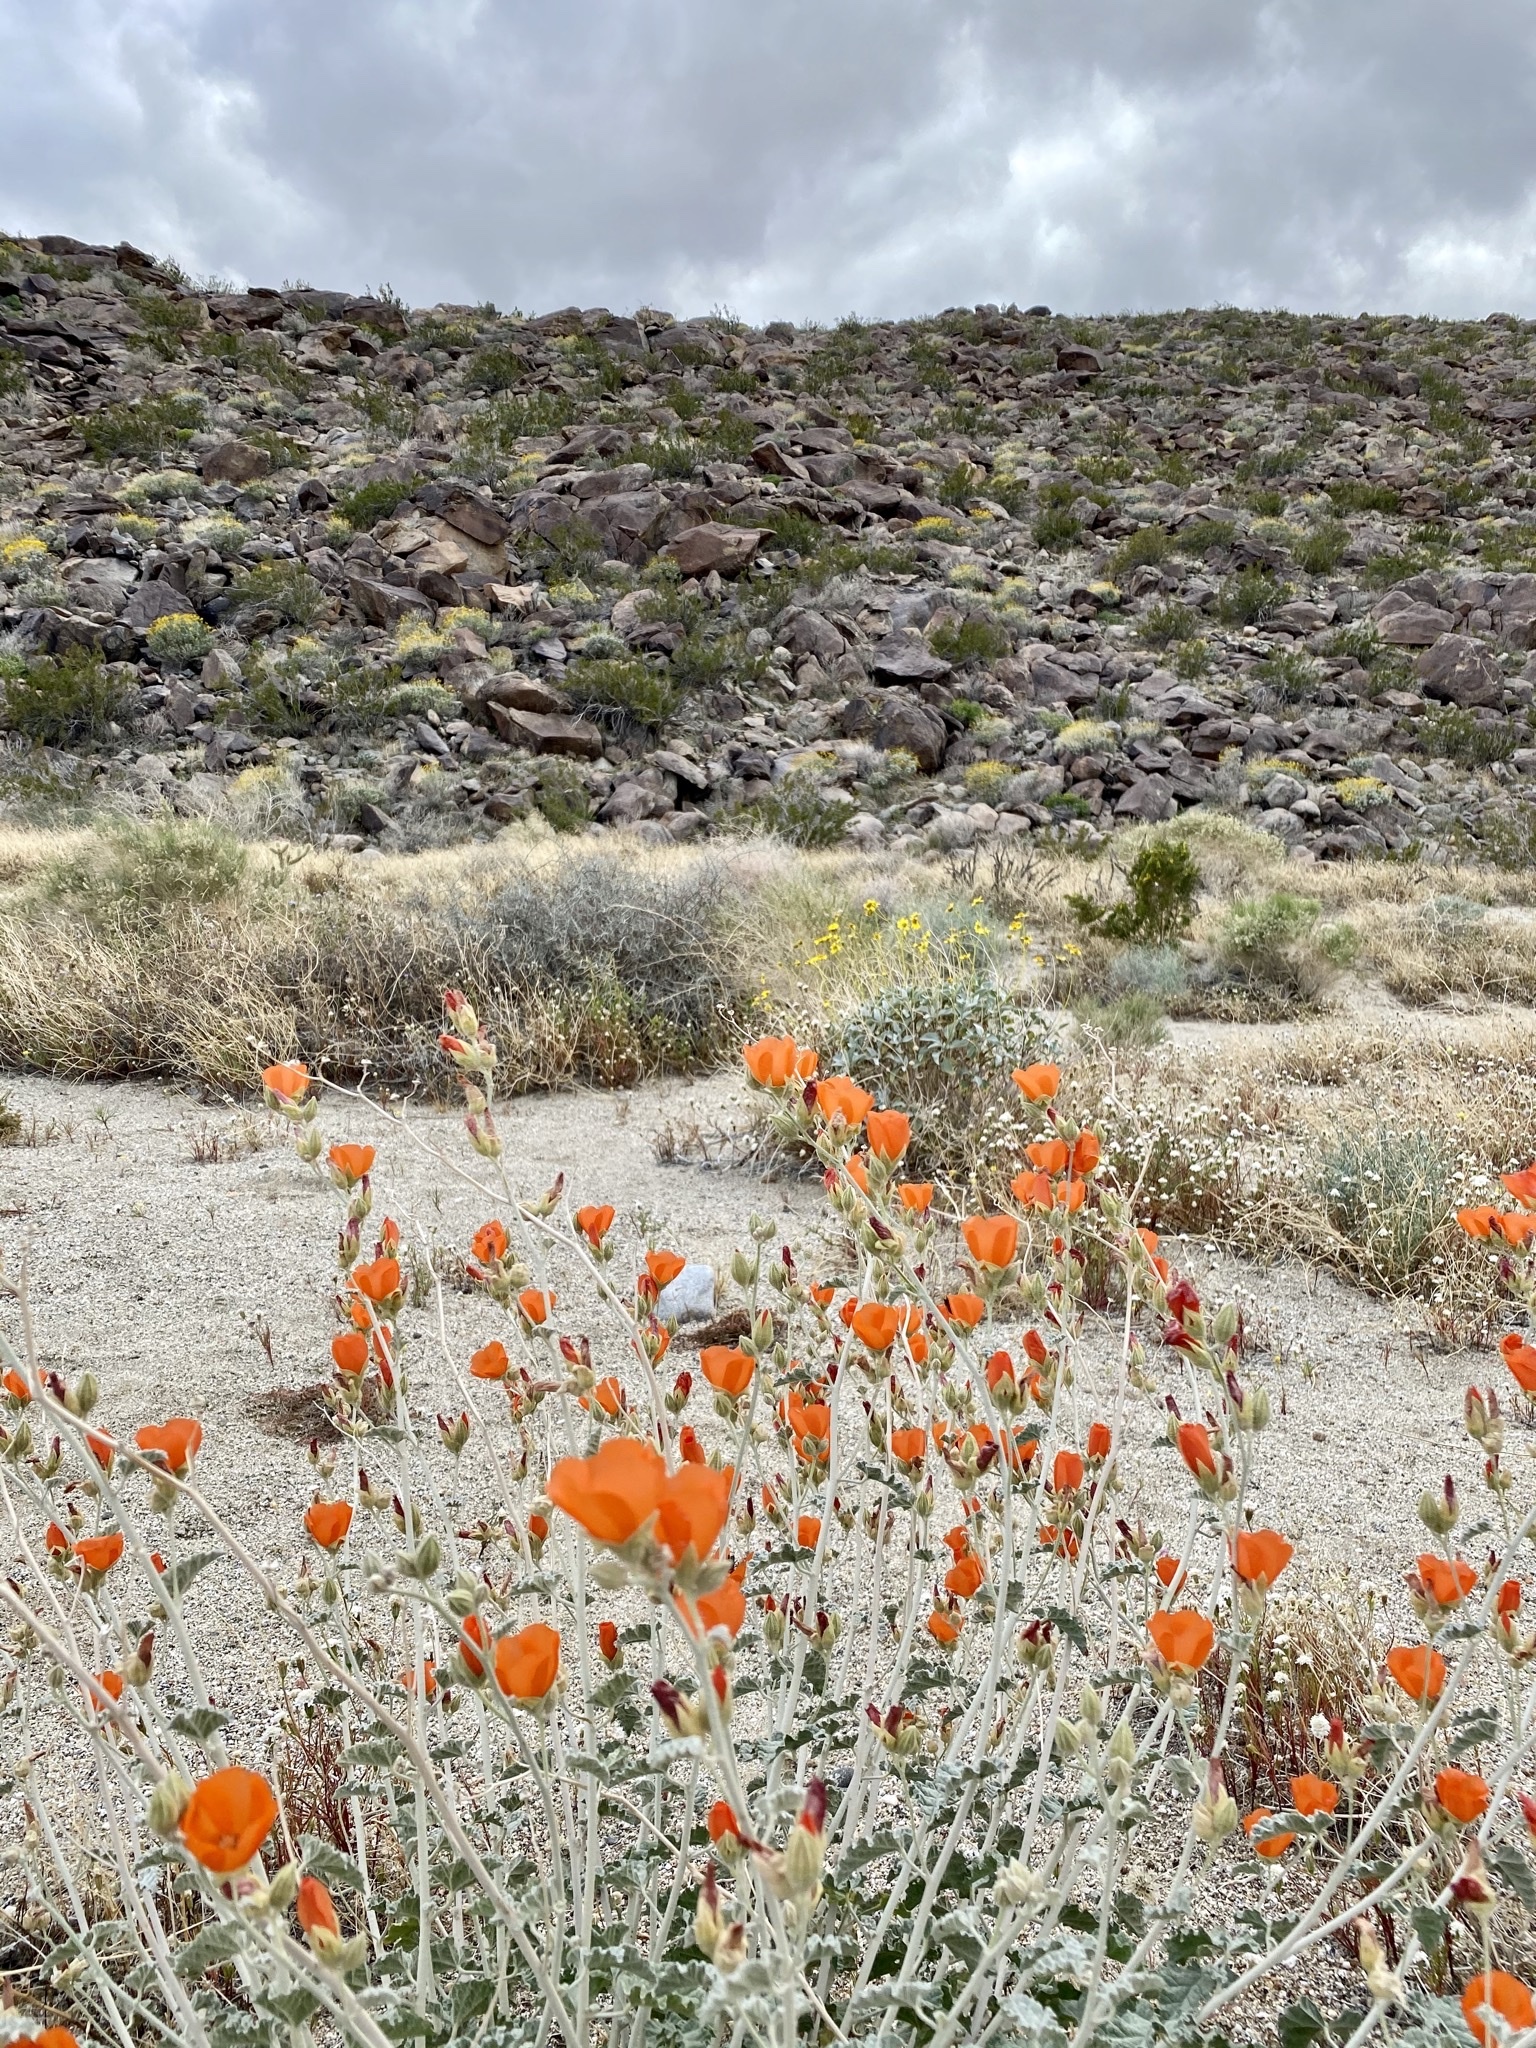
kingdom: Plantae
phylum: Tracheophyta
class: Magnoliopsida
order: Malvales
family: Malvaceae
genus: Sphaeralcea
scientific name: Sphaeralcea ambigua
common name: Apricot globe-mallow
